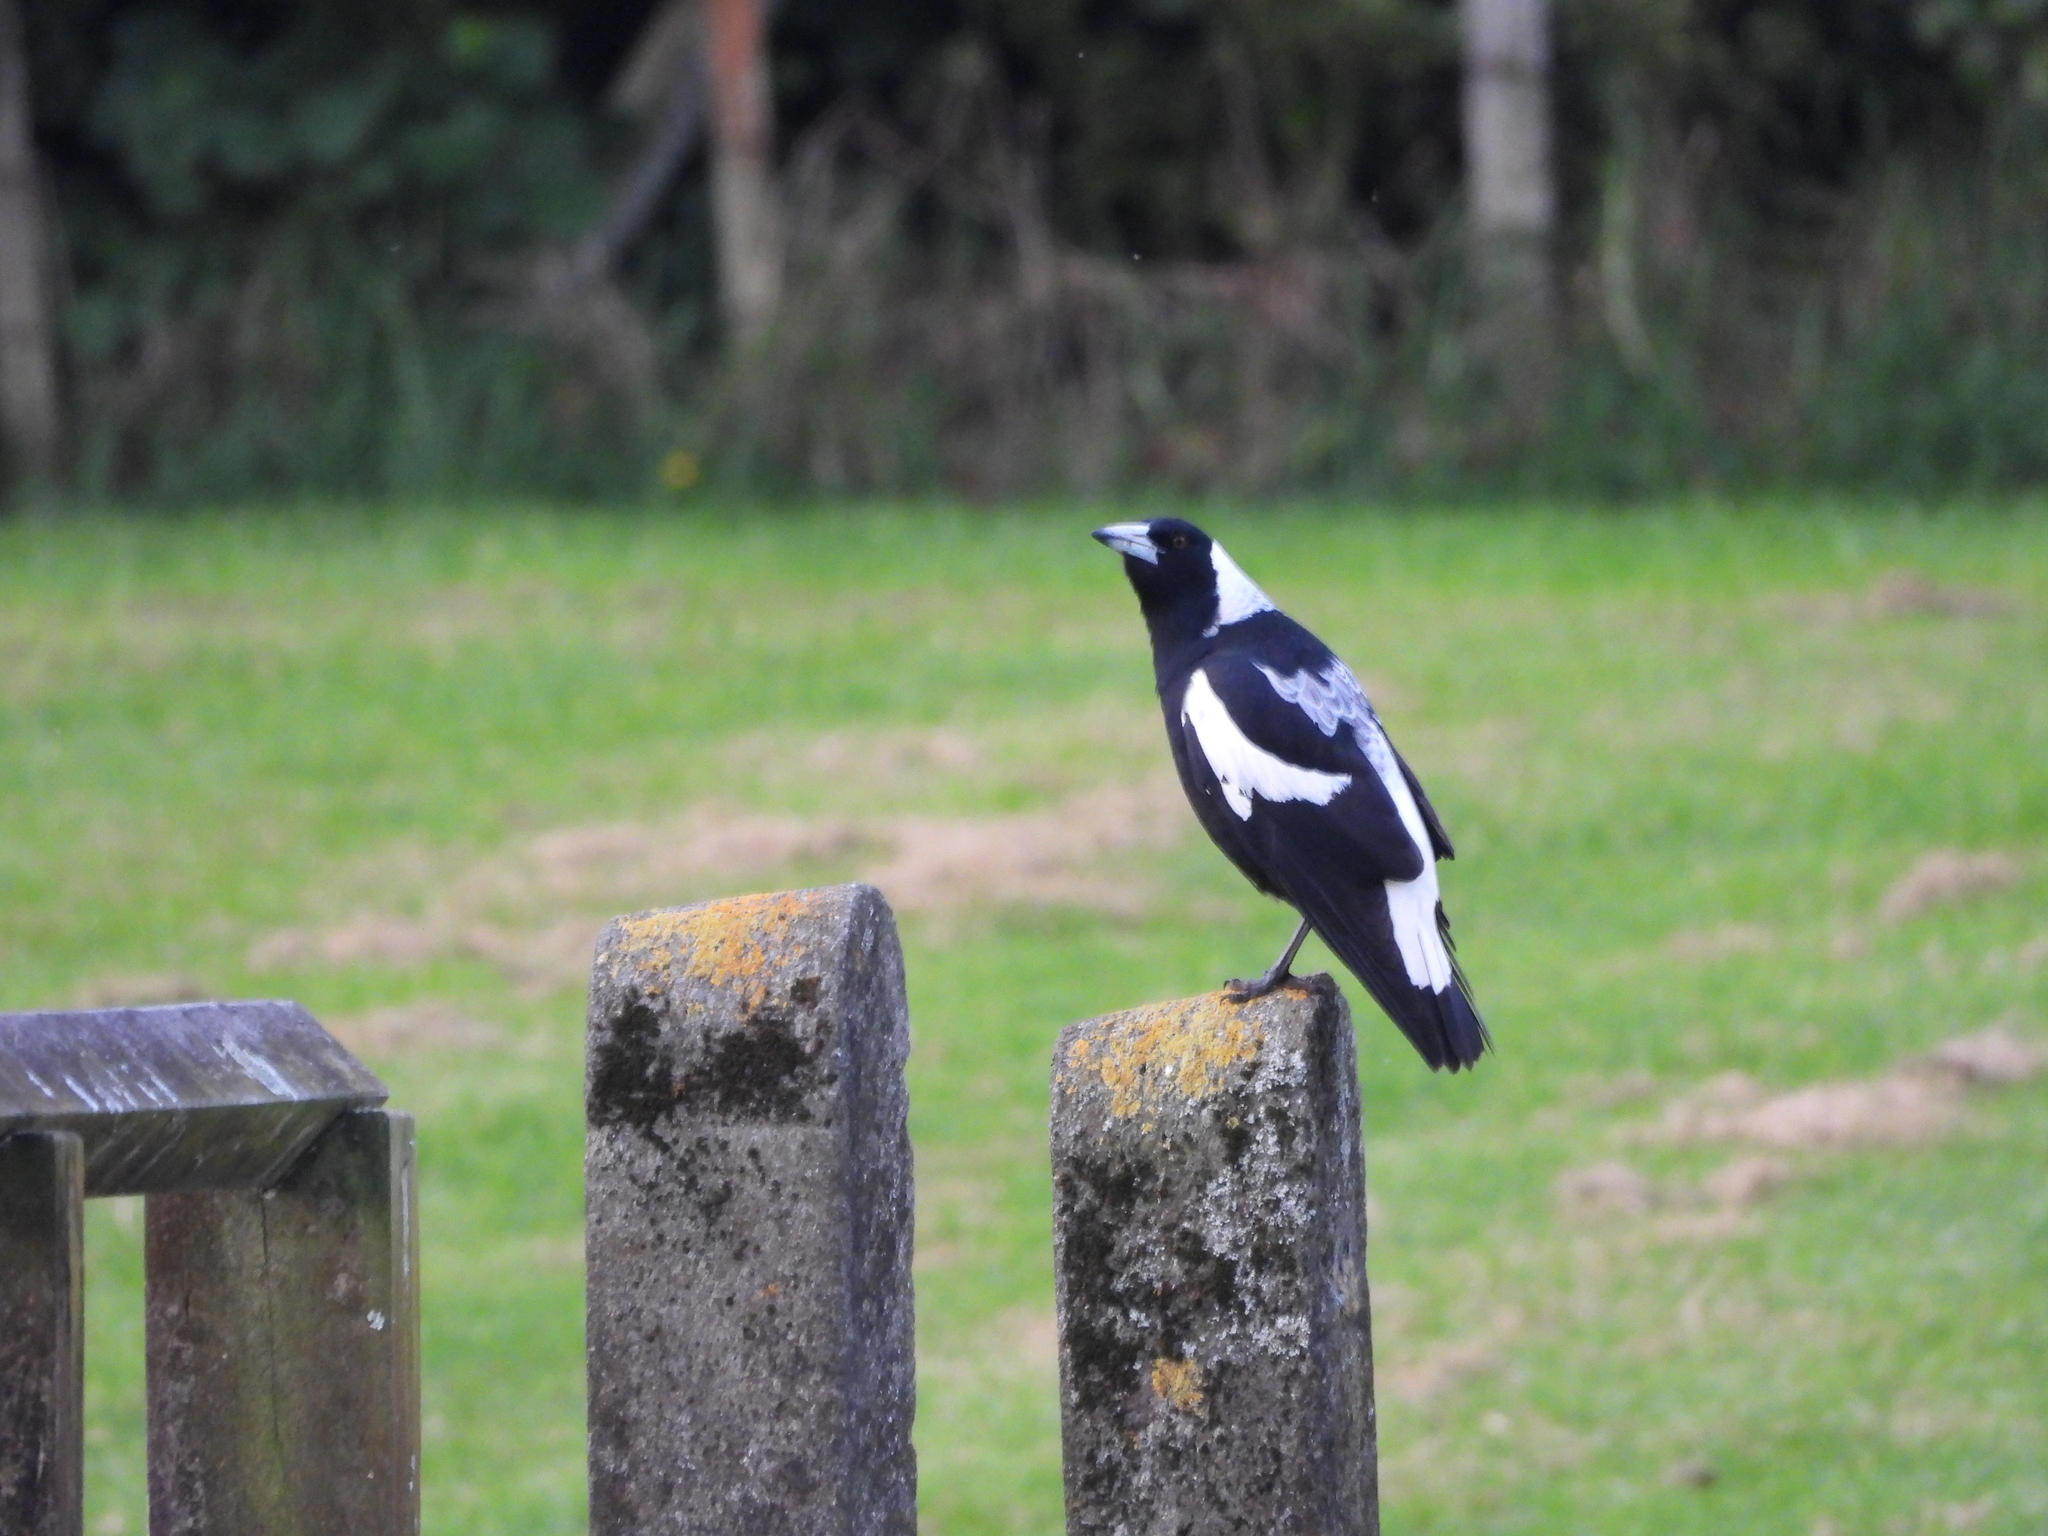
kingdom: Animalia
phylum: Chordata
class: Aves
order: Passeriformes
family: Cracticidae
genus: Gymnorhina
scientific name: Gymnorhina tibicen
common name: Australian magpie
